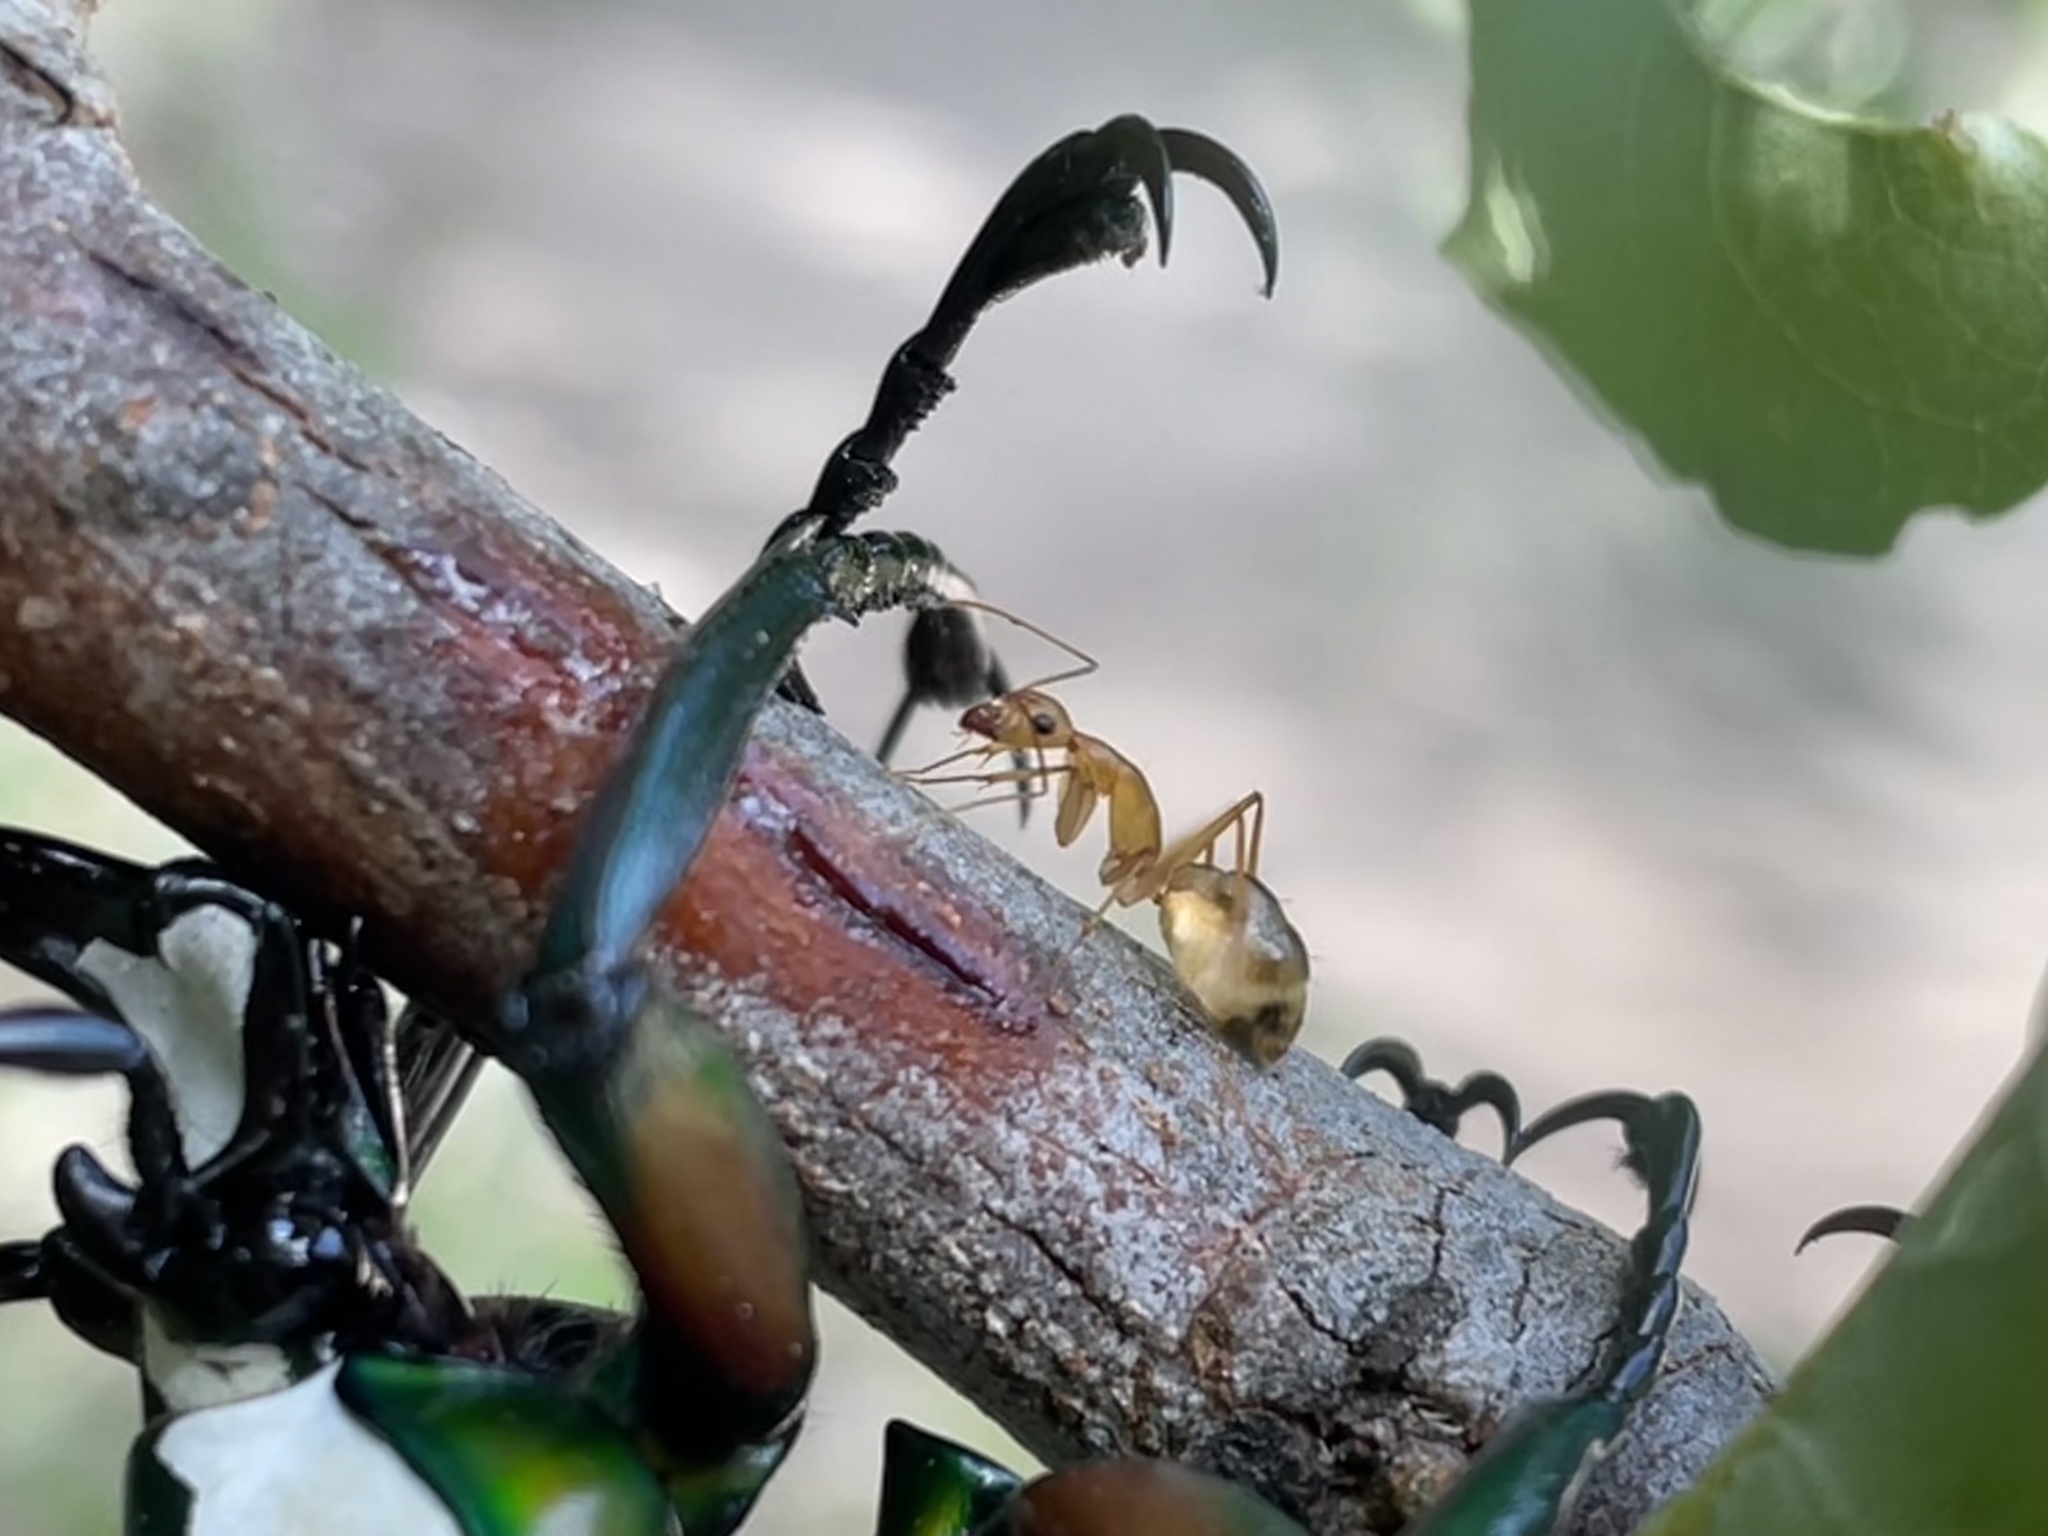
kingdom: Animalia
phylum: Arthropoda
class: Insecta
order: Hymenoptera
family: Formicidae
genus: Camponotus
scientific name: Camponotus maculatus
